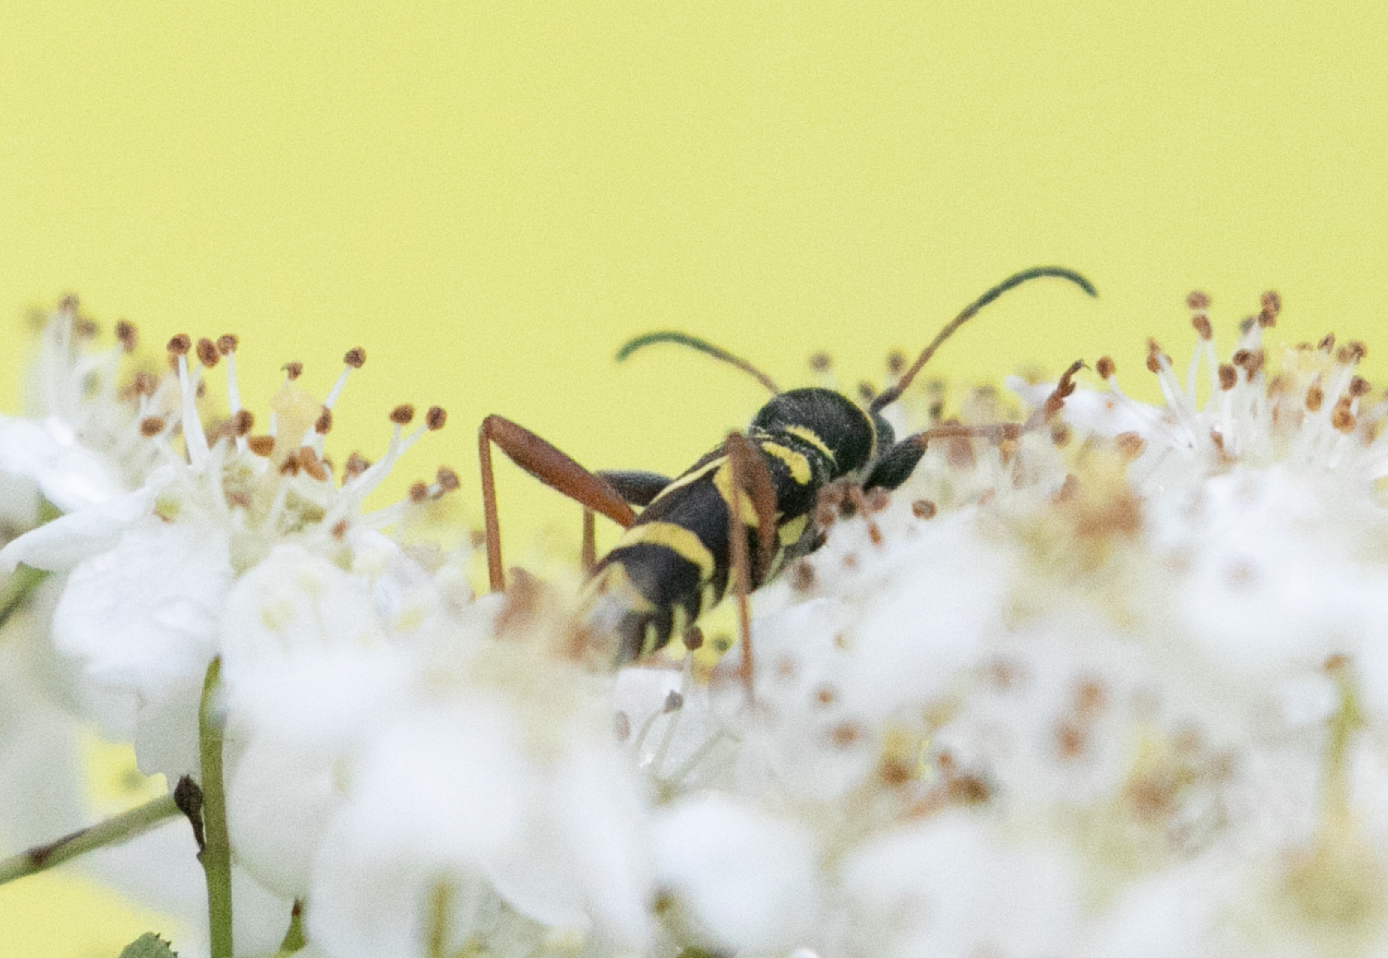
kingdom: Animalia
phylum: Arthropoda
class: Insecta
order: Coleoptera
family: Cerambycidae
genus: Clytus
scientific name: Clytus arietis
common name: Wasp beetle
